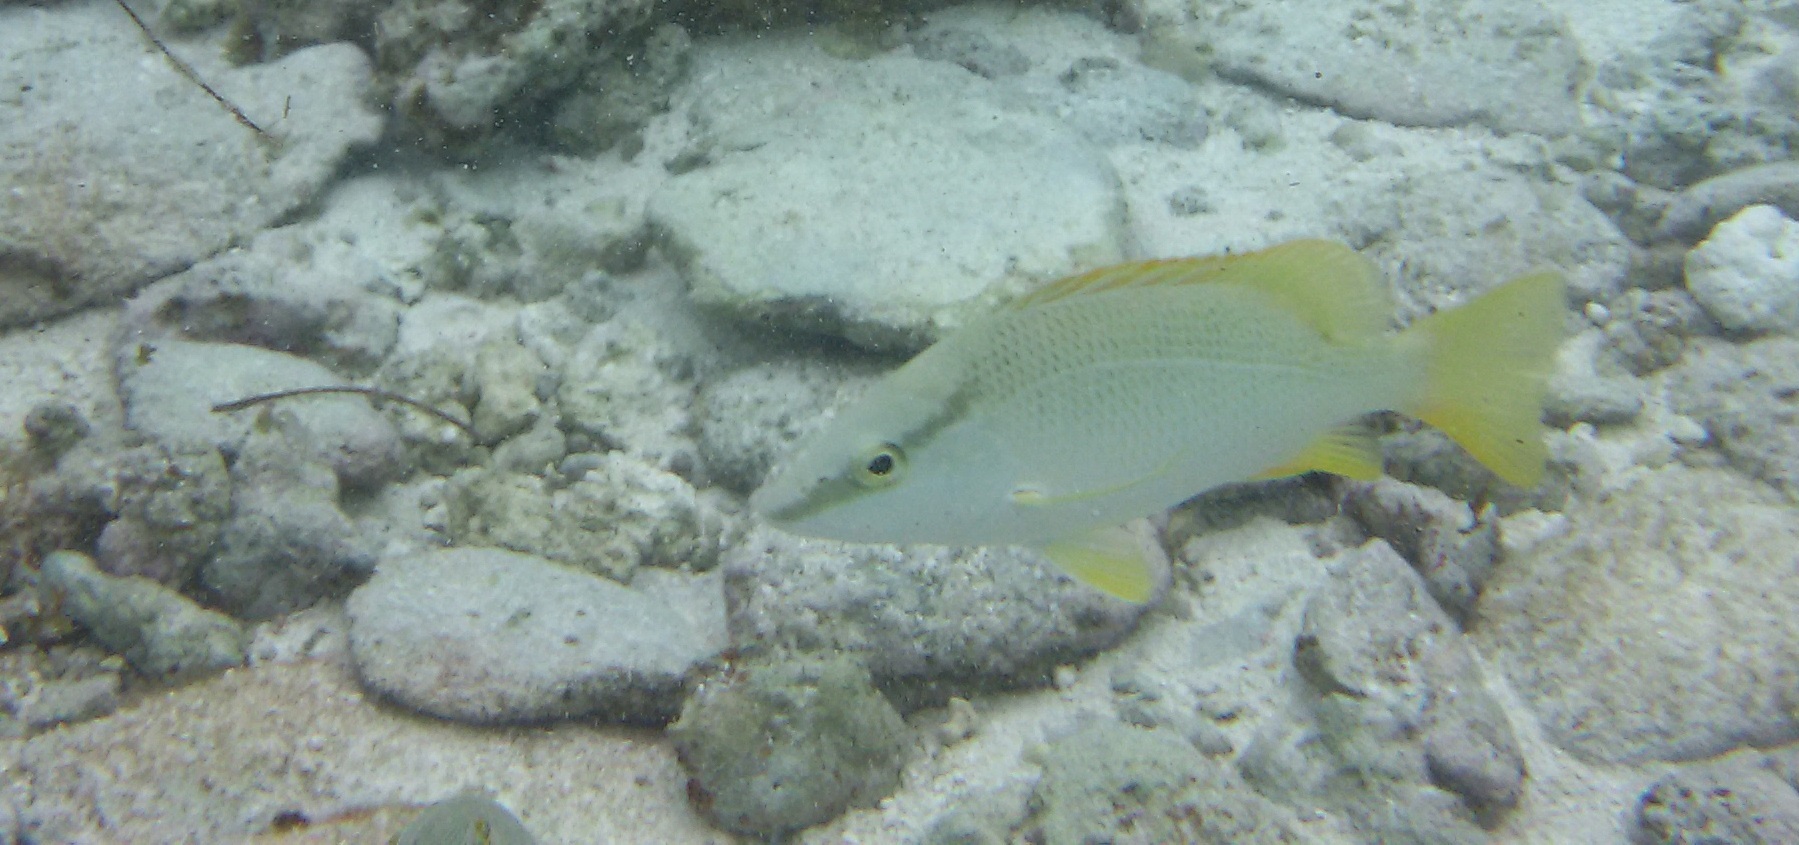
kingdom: Animalia
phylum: Chordata
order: Perciformes
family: Lutjanidae
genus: Lutjanus
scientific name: Lutjanus apodus
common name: Schoolmaster
